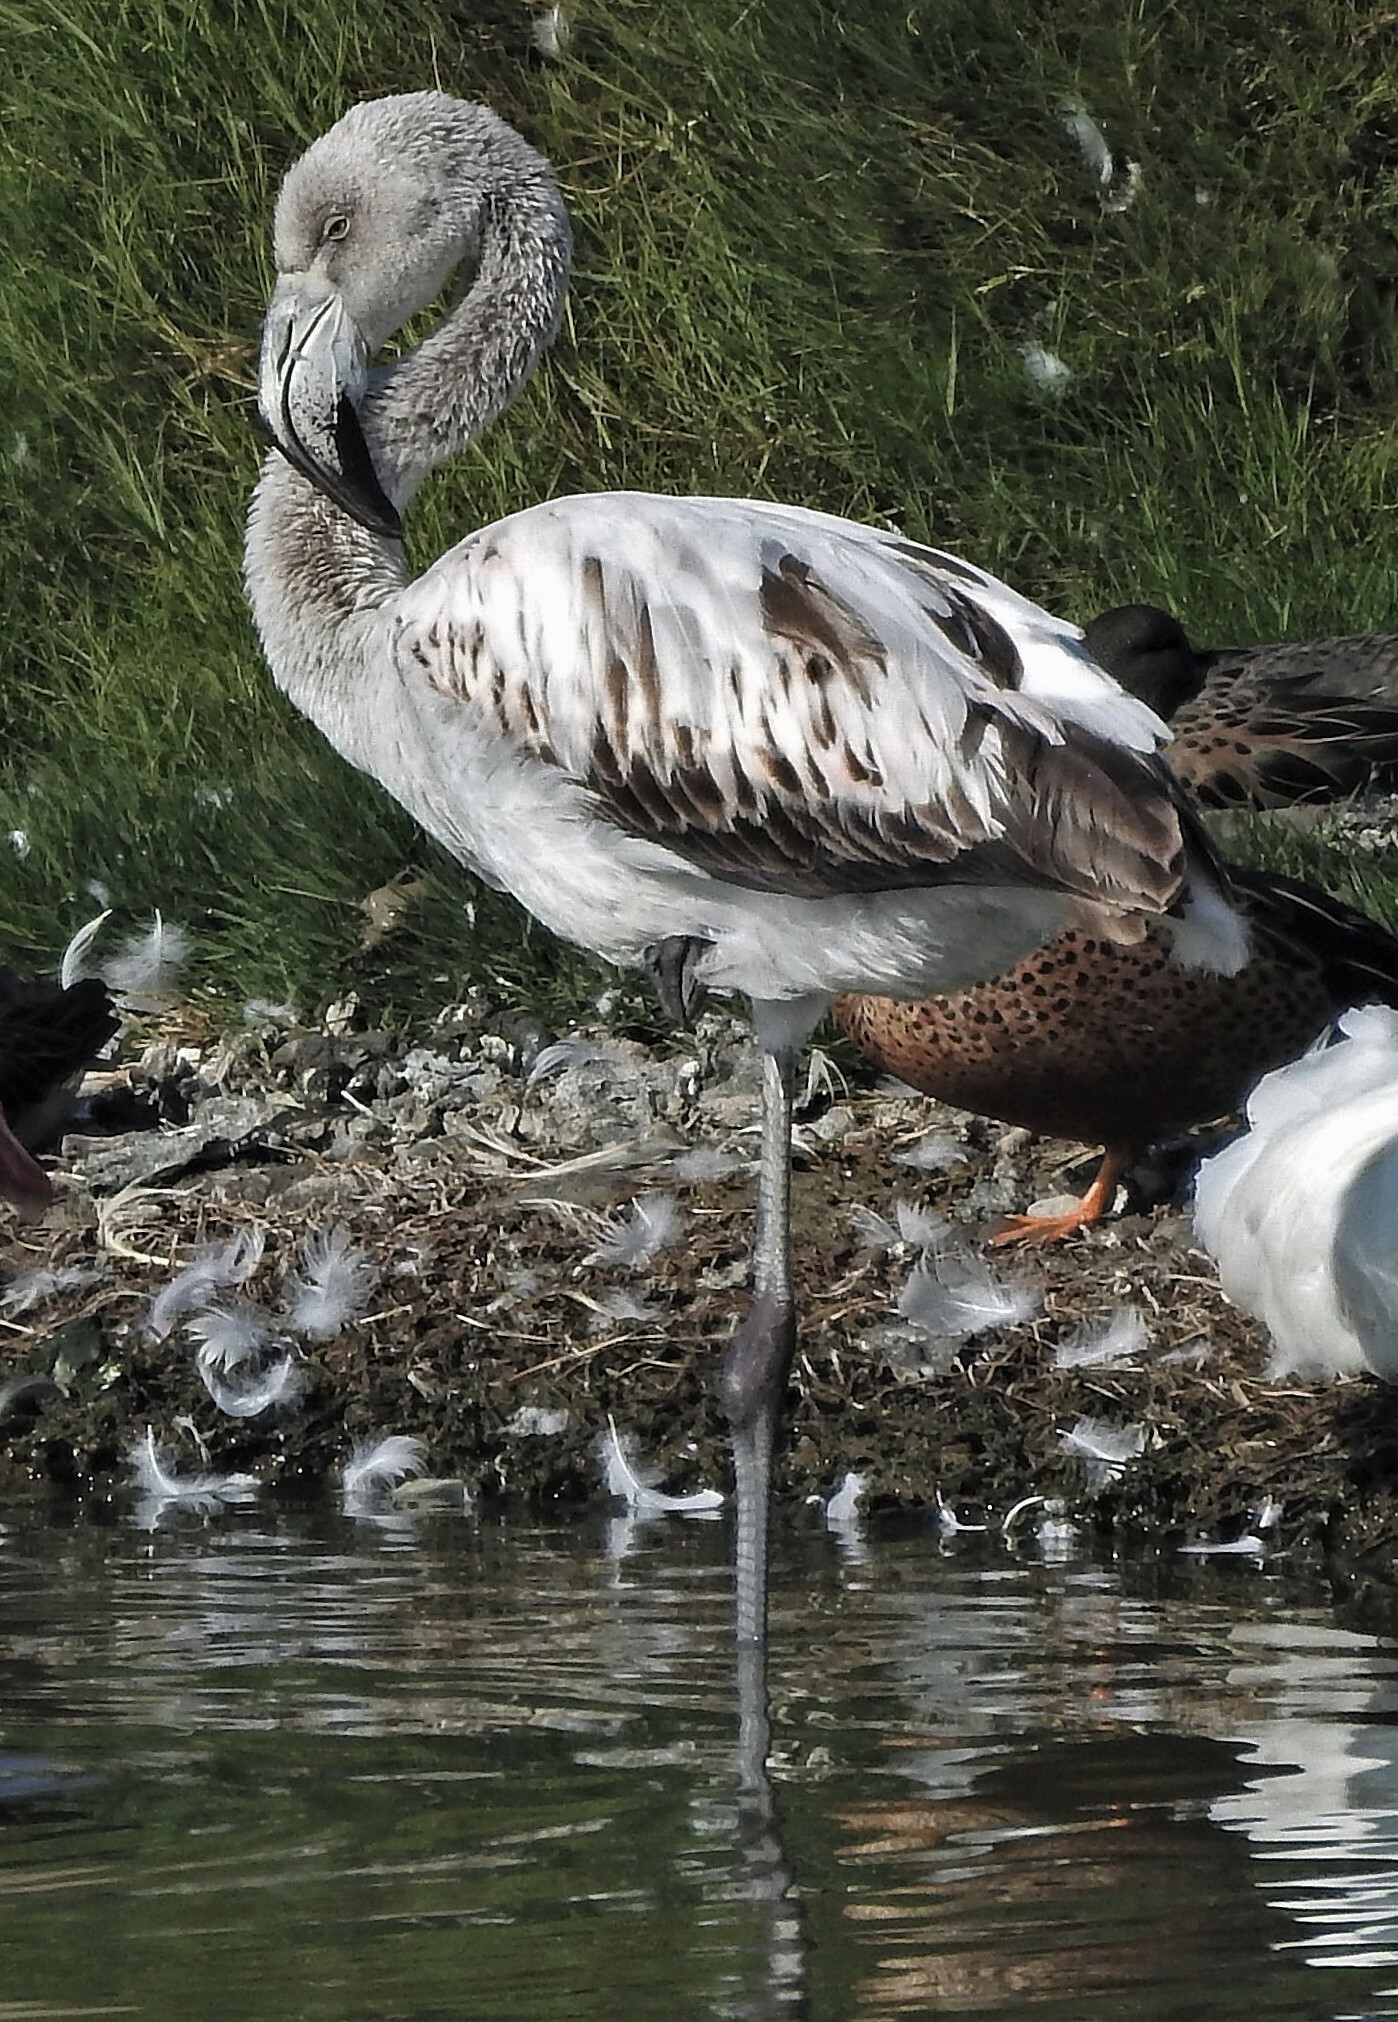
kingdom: Animalia
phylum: Chordata
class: Aves
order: Phoenicopteriformes
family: Phoenicopteridae
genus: Phoenicopterus
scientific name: Phoenicopterus chilensis
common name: Chilean flamingo
